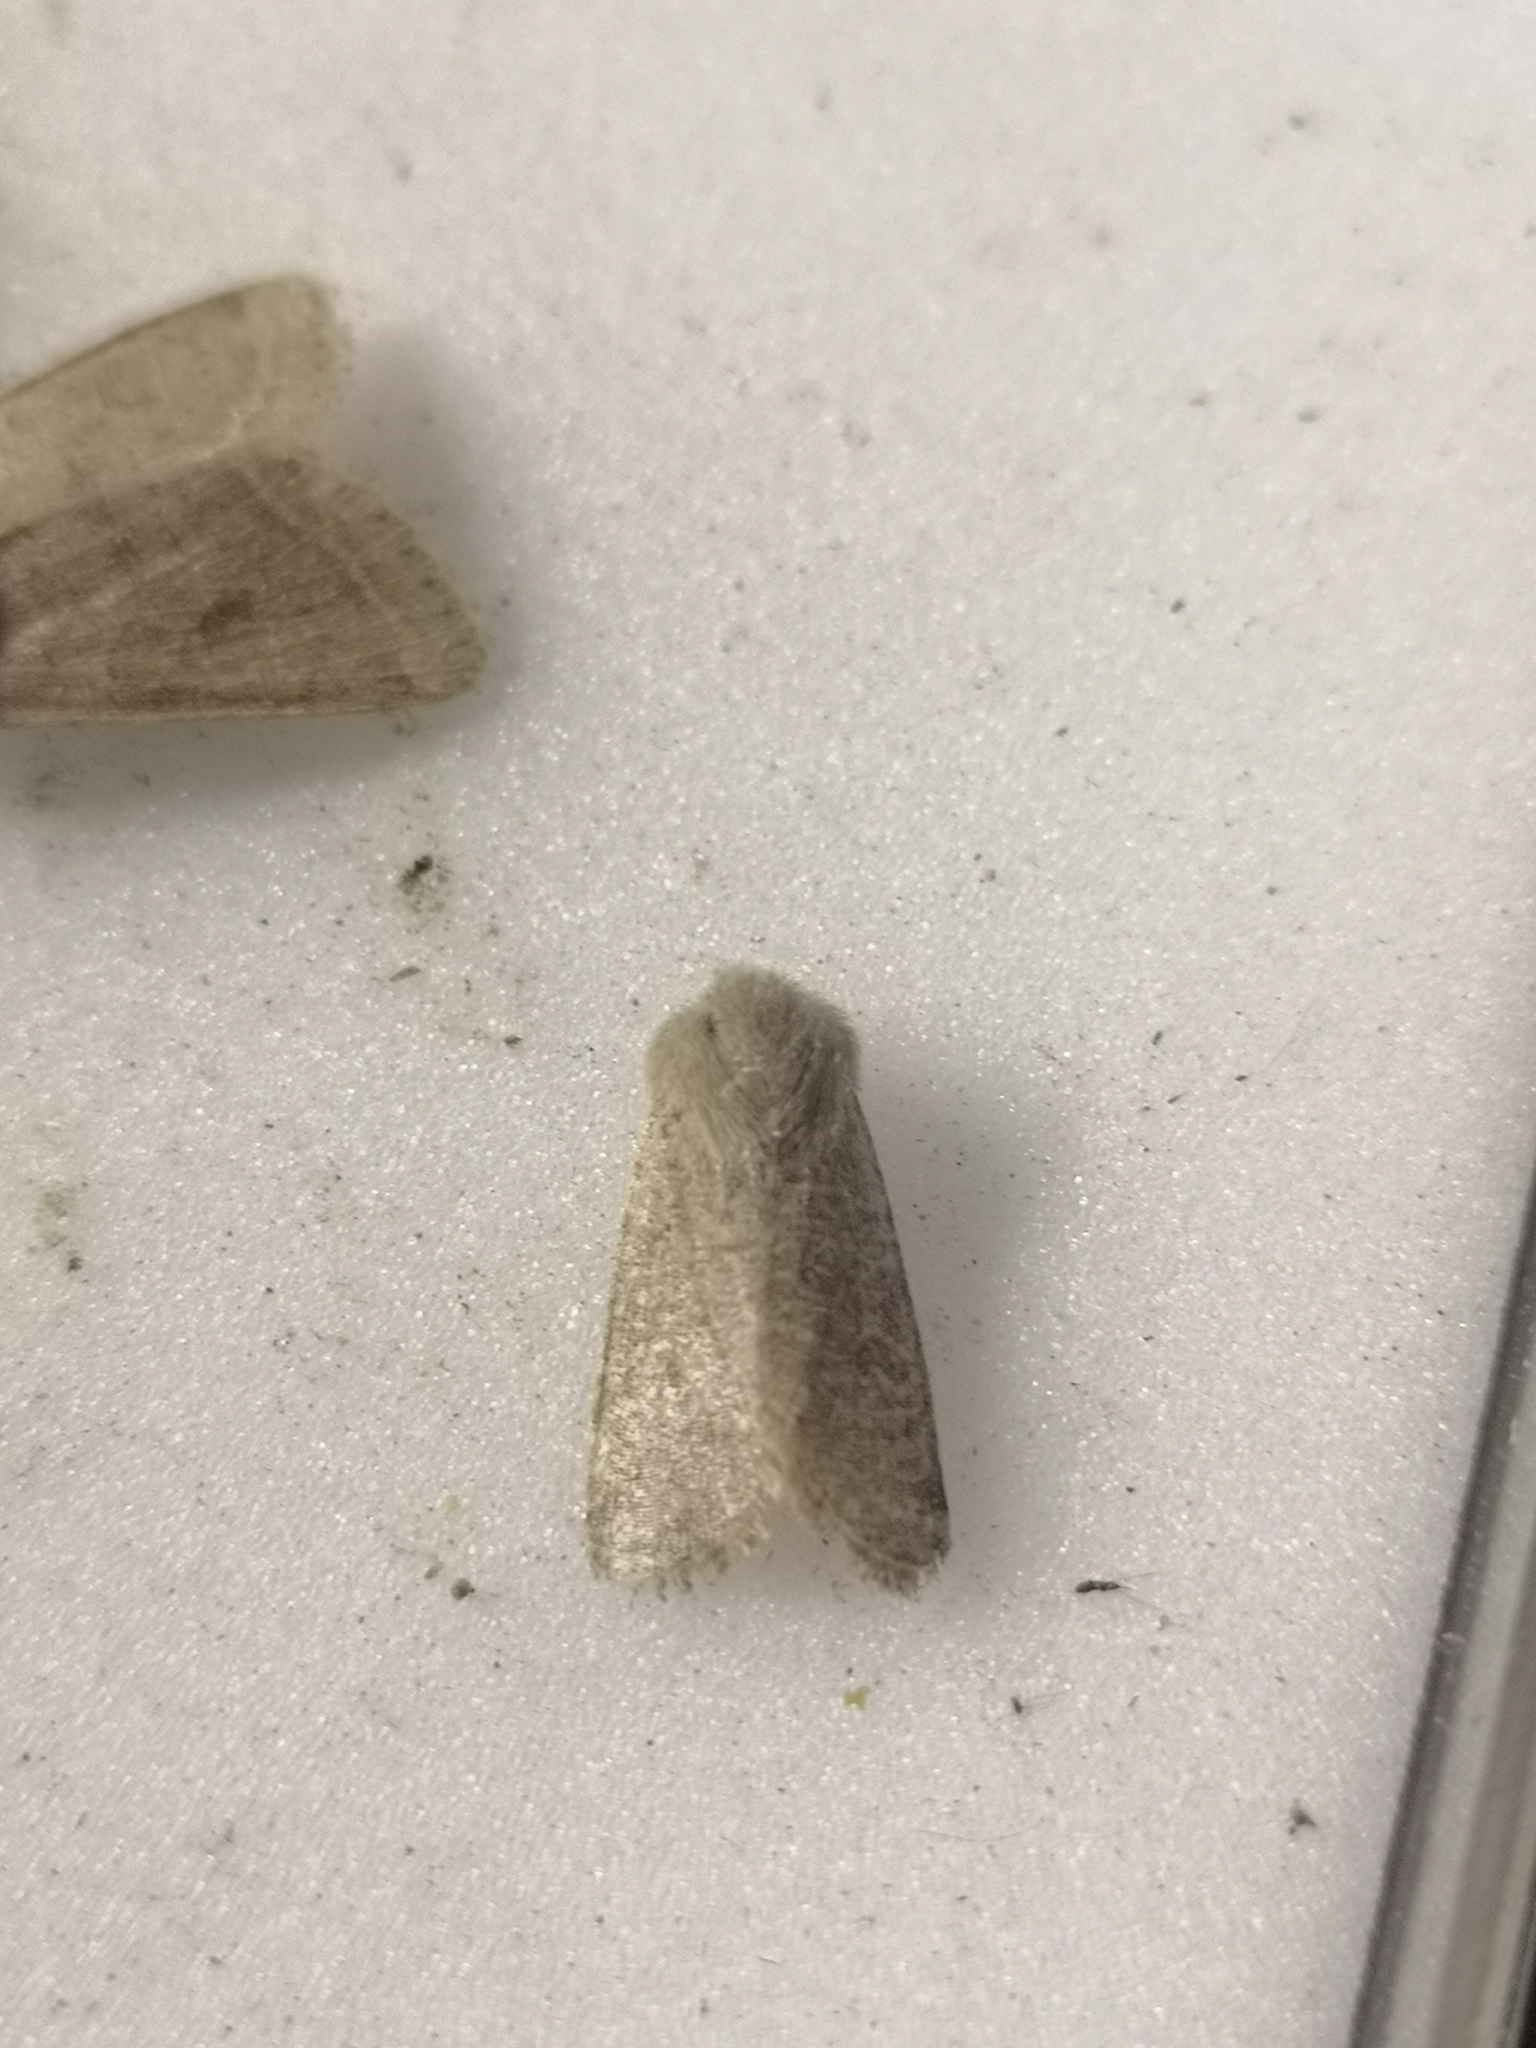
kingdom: Animalia
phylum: Arthropoda
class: Insecta
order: Lepidoptera
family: Noctuidae
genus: Orthosia
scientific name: Orthosia cruda
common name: Small quaker
